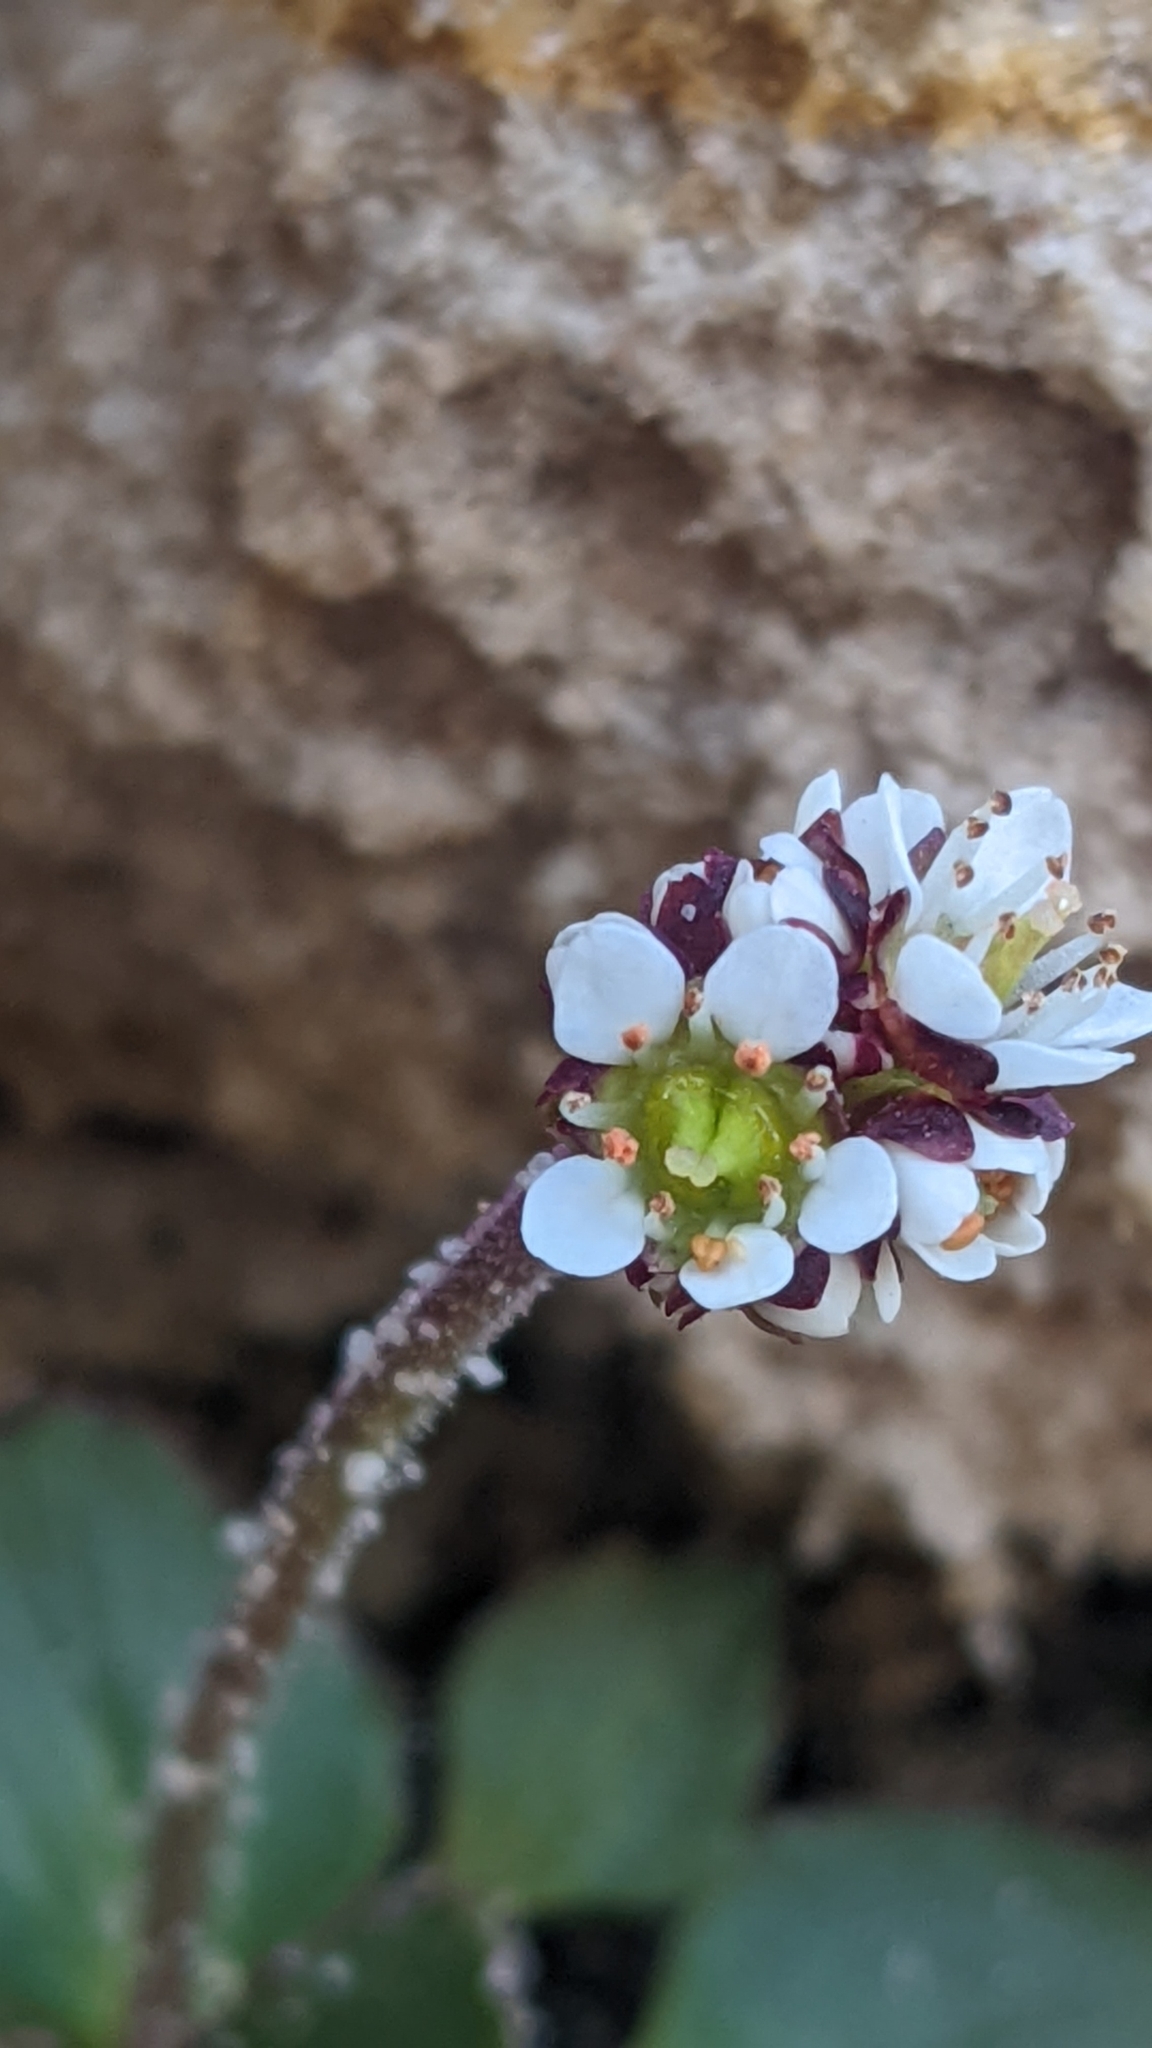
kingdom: Plantae
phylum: Tracheophyta
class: Magnoliopsida
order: Saxifragales
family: Saxifragaceae
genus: Micranthes
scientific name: Micranthes rhomboidea
